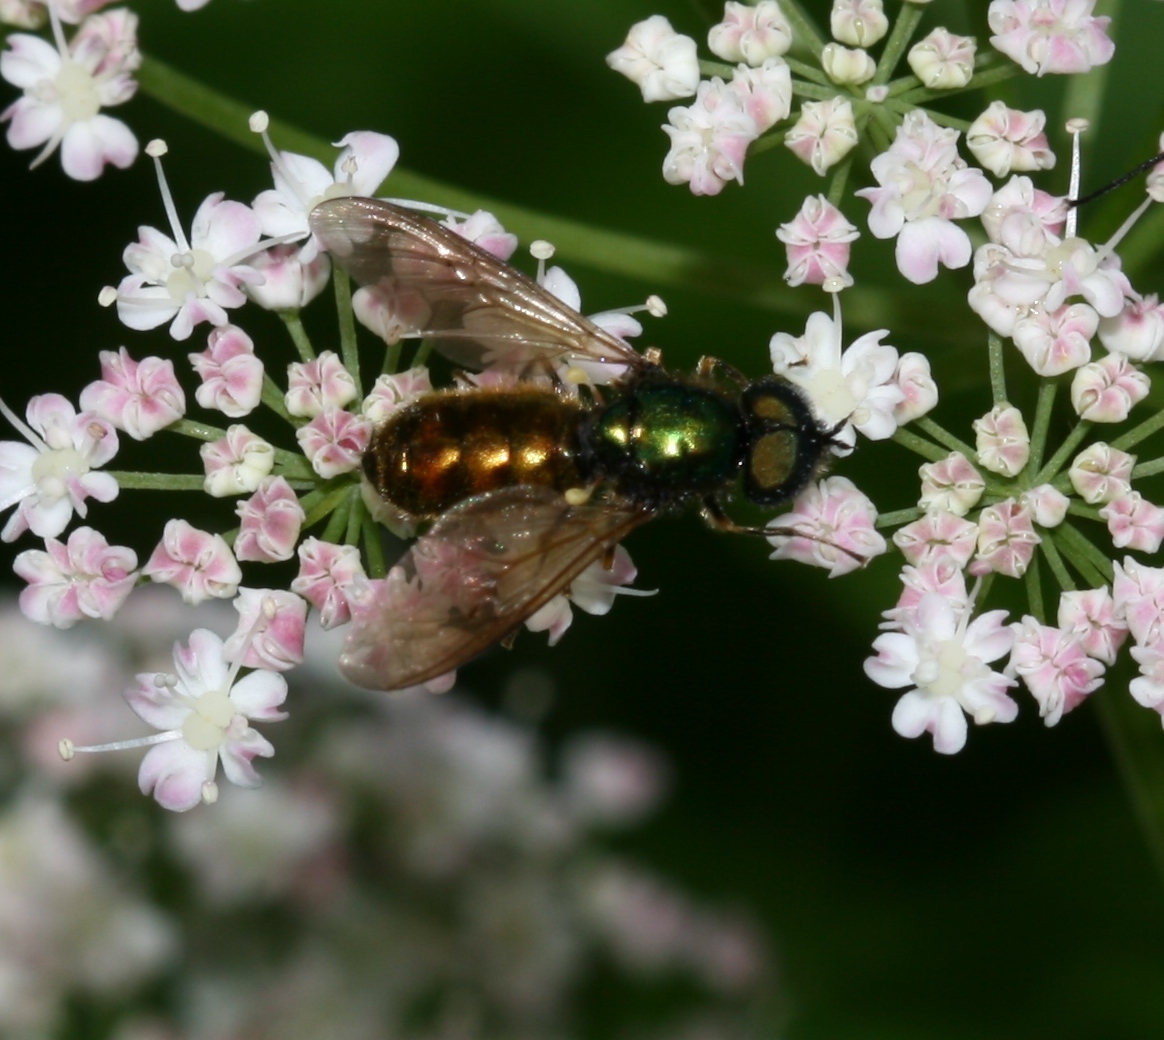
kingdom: Animalia
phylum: Arthropoda
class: Insecta
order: Diptera
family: Stratiomyidae
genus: Chloromyia
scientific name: Chloromyia formosa
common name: Soldier fly
